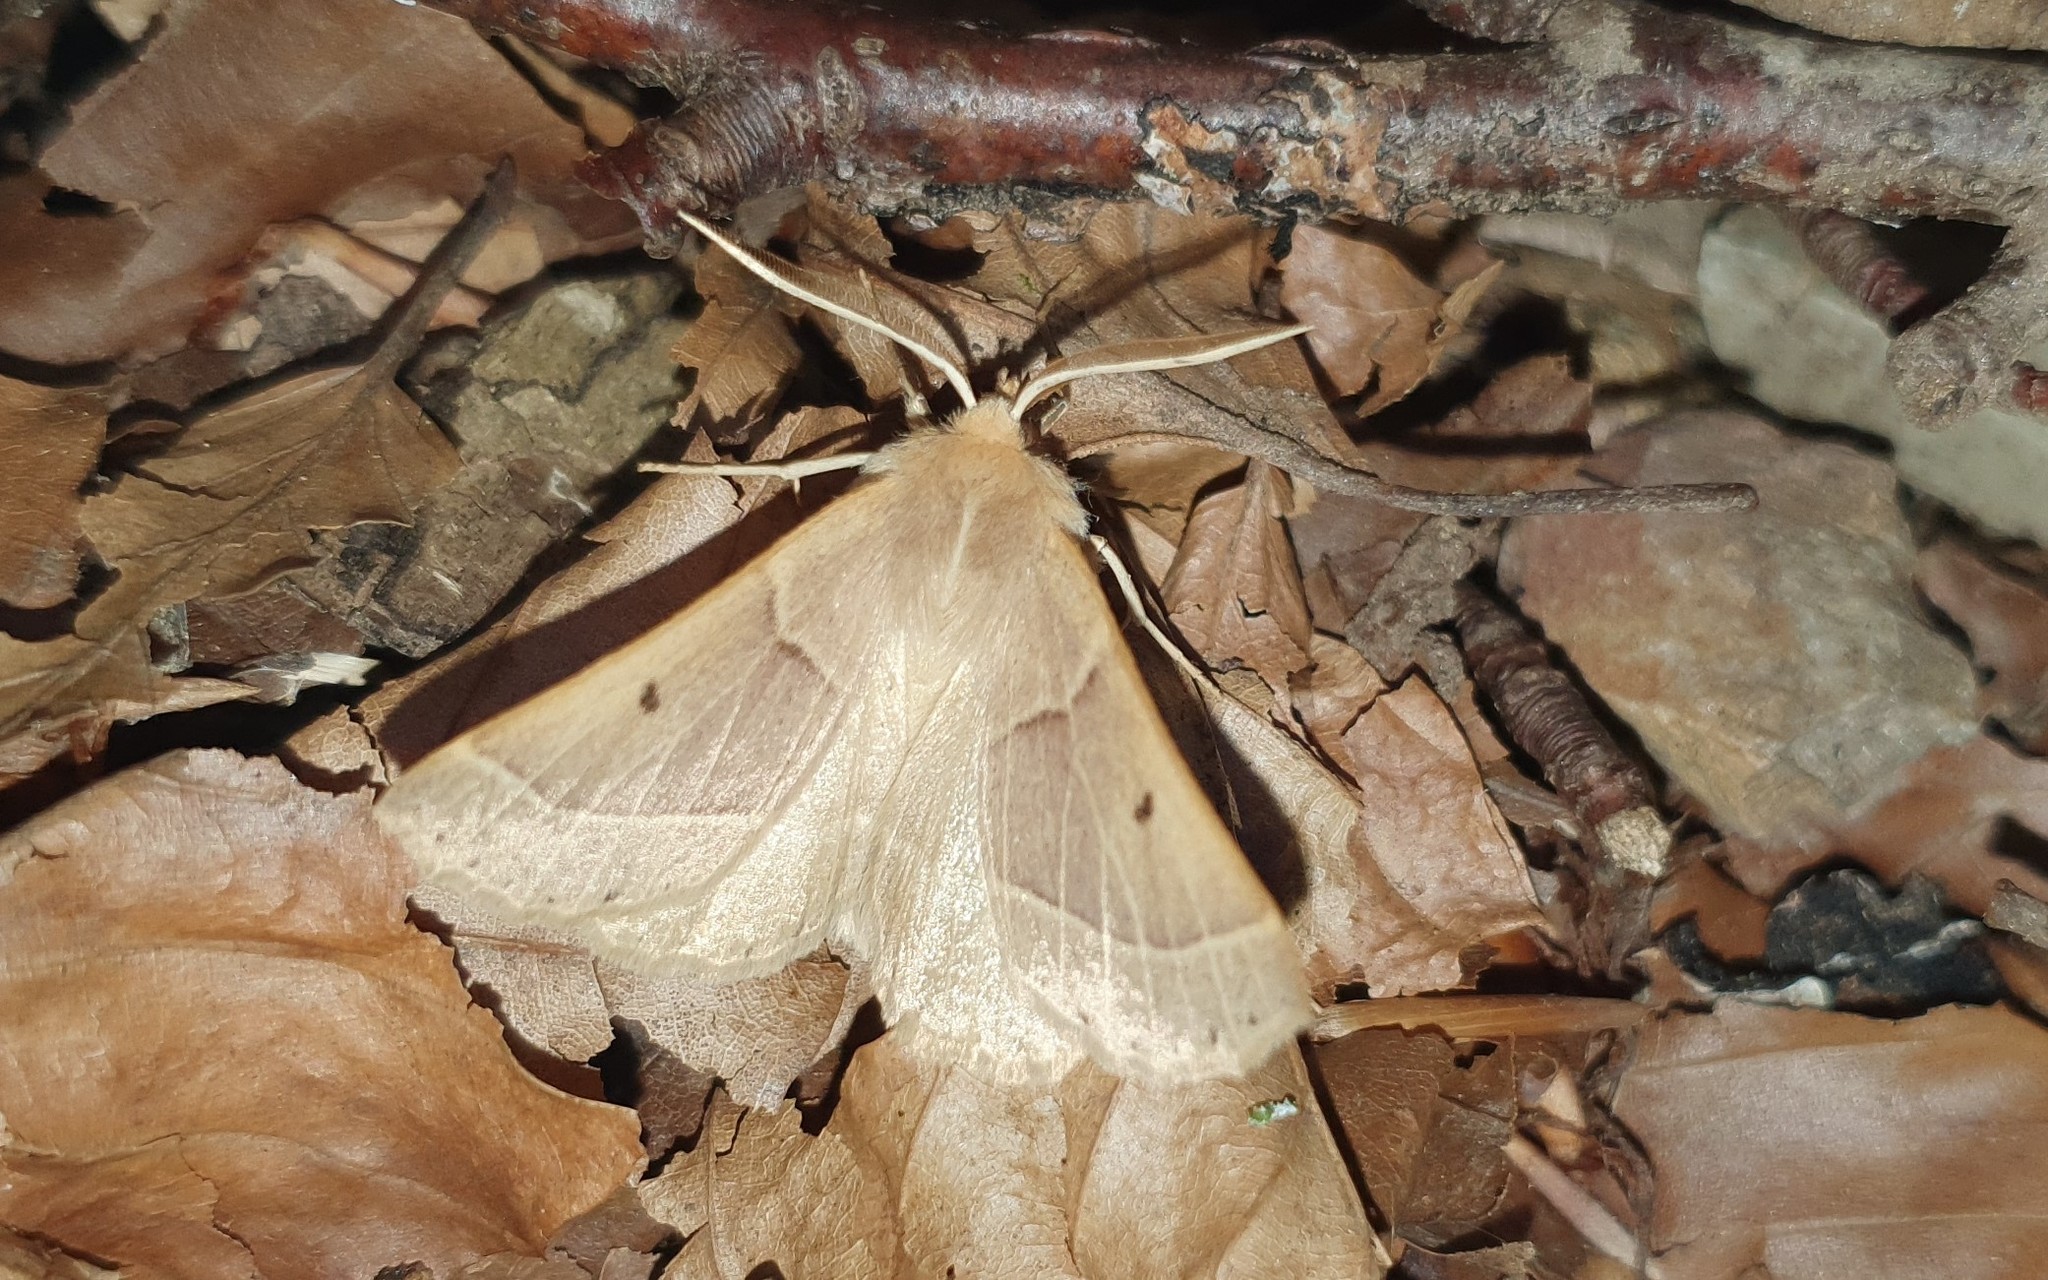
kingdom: Animalia
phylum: Arthropoda
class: Insecta
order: Lepidoptera
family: Geometridae
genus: Crocallis
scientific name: Crocallis elinguaria
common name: Scalloped oak
